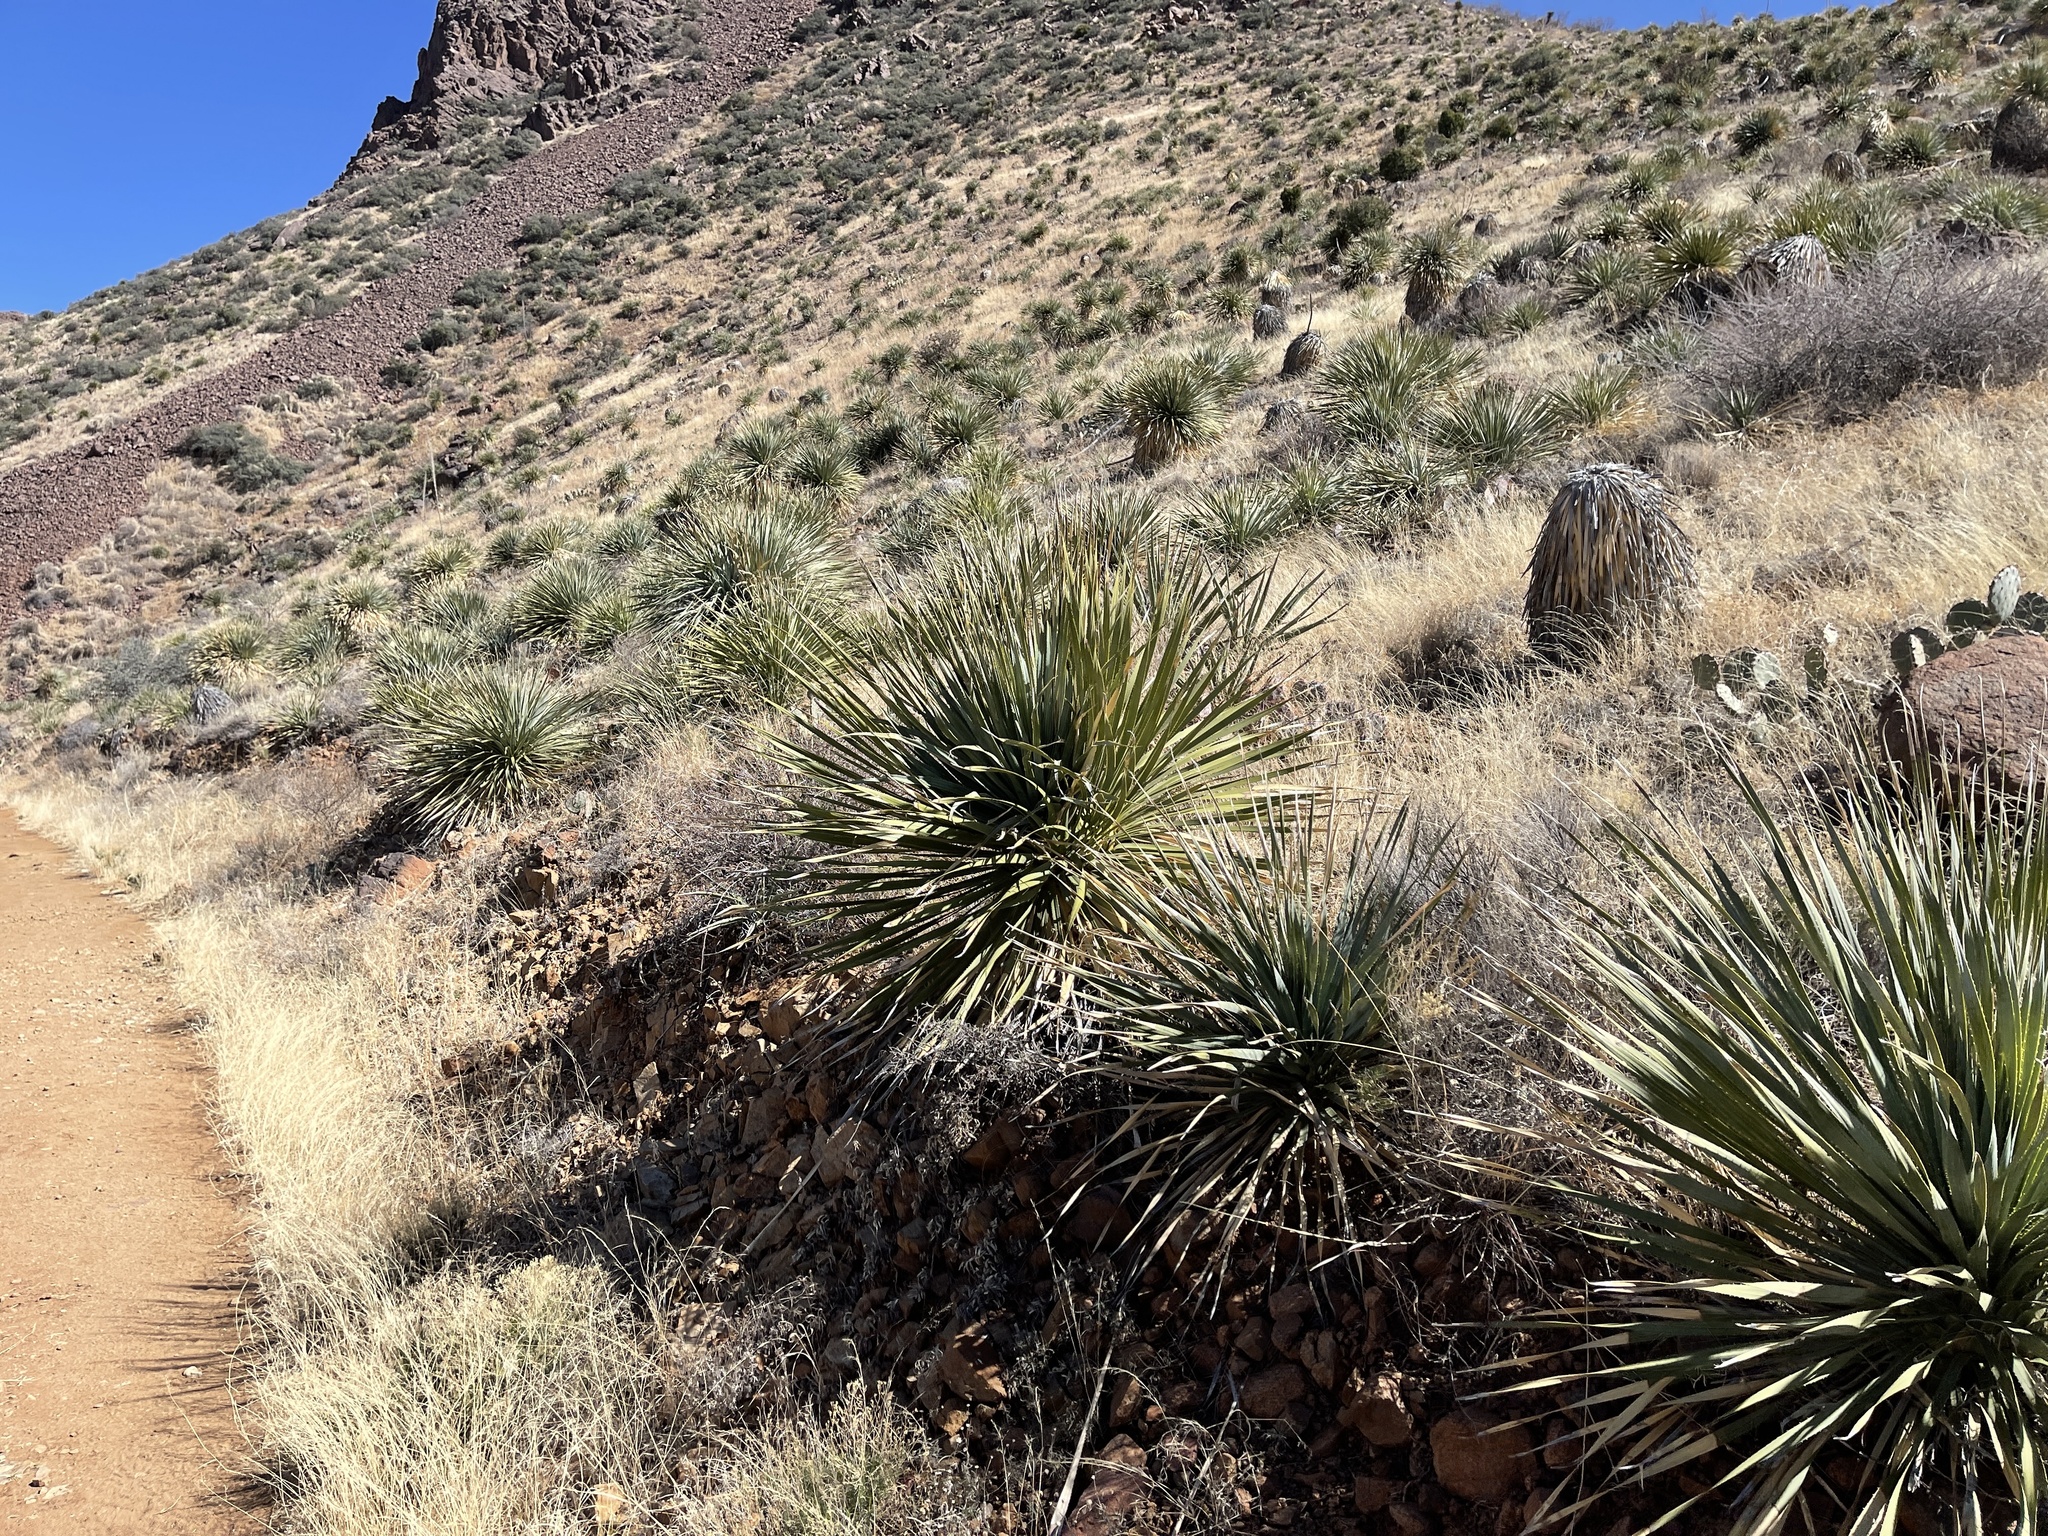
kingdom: Plantae
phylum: Tracheophyta
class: Liliopsida
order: Asparagales
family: Asparagaceae
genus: Dasylirion
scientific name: Dasylirion wheeleri
